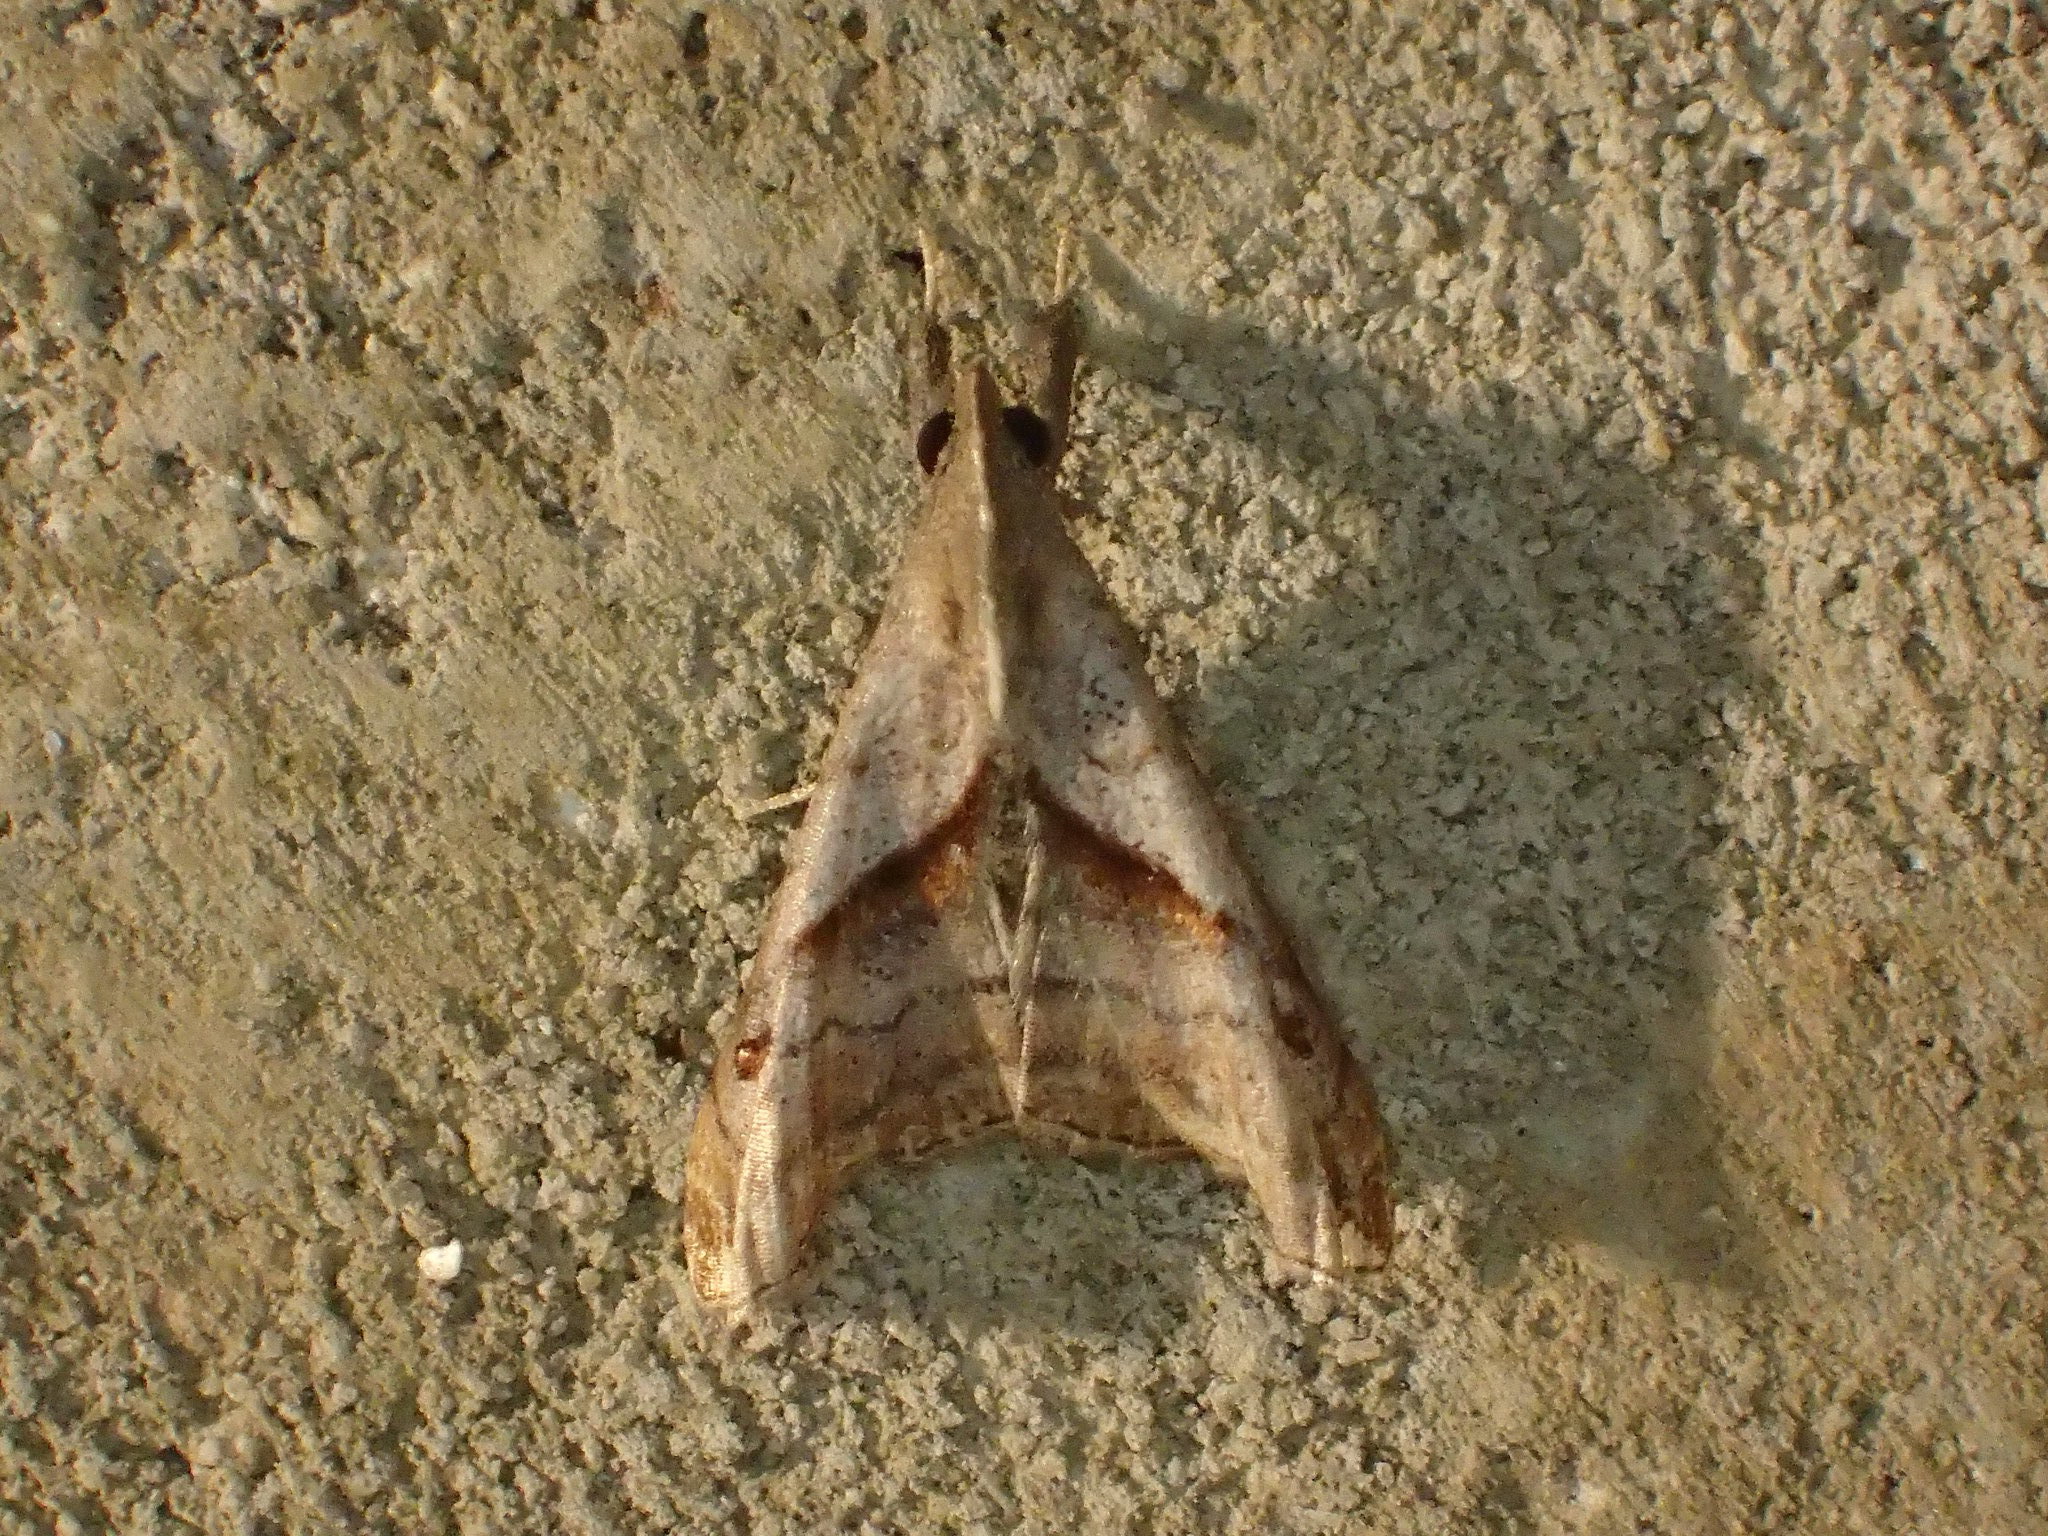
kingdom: Animalia
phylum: Arthropoda
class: Insecta
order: Lepidoptera
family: Erebidae
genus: Palthis
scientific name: Palthis angulalis
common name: Dark-spotted palthis moth
